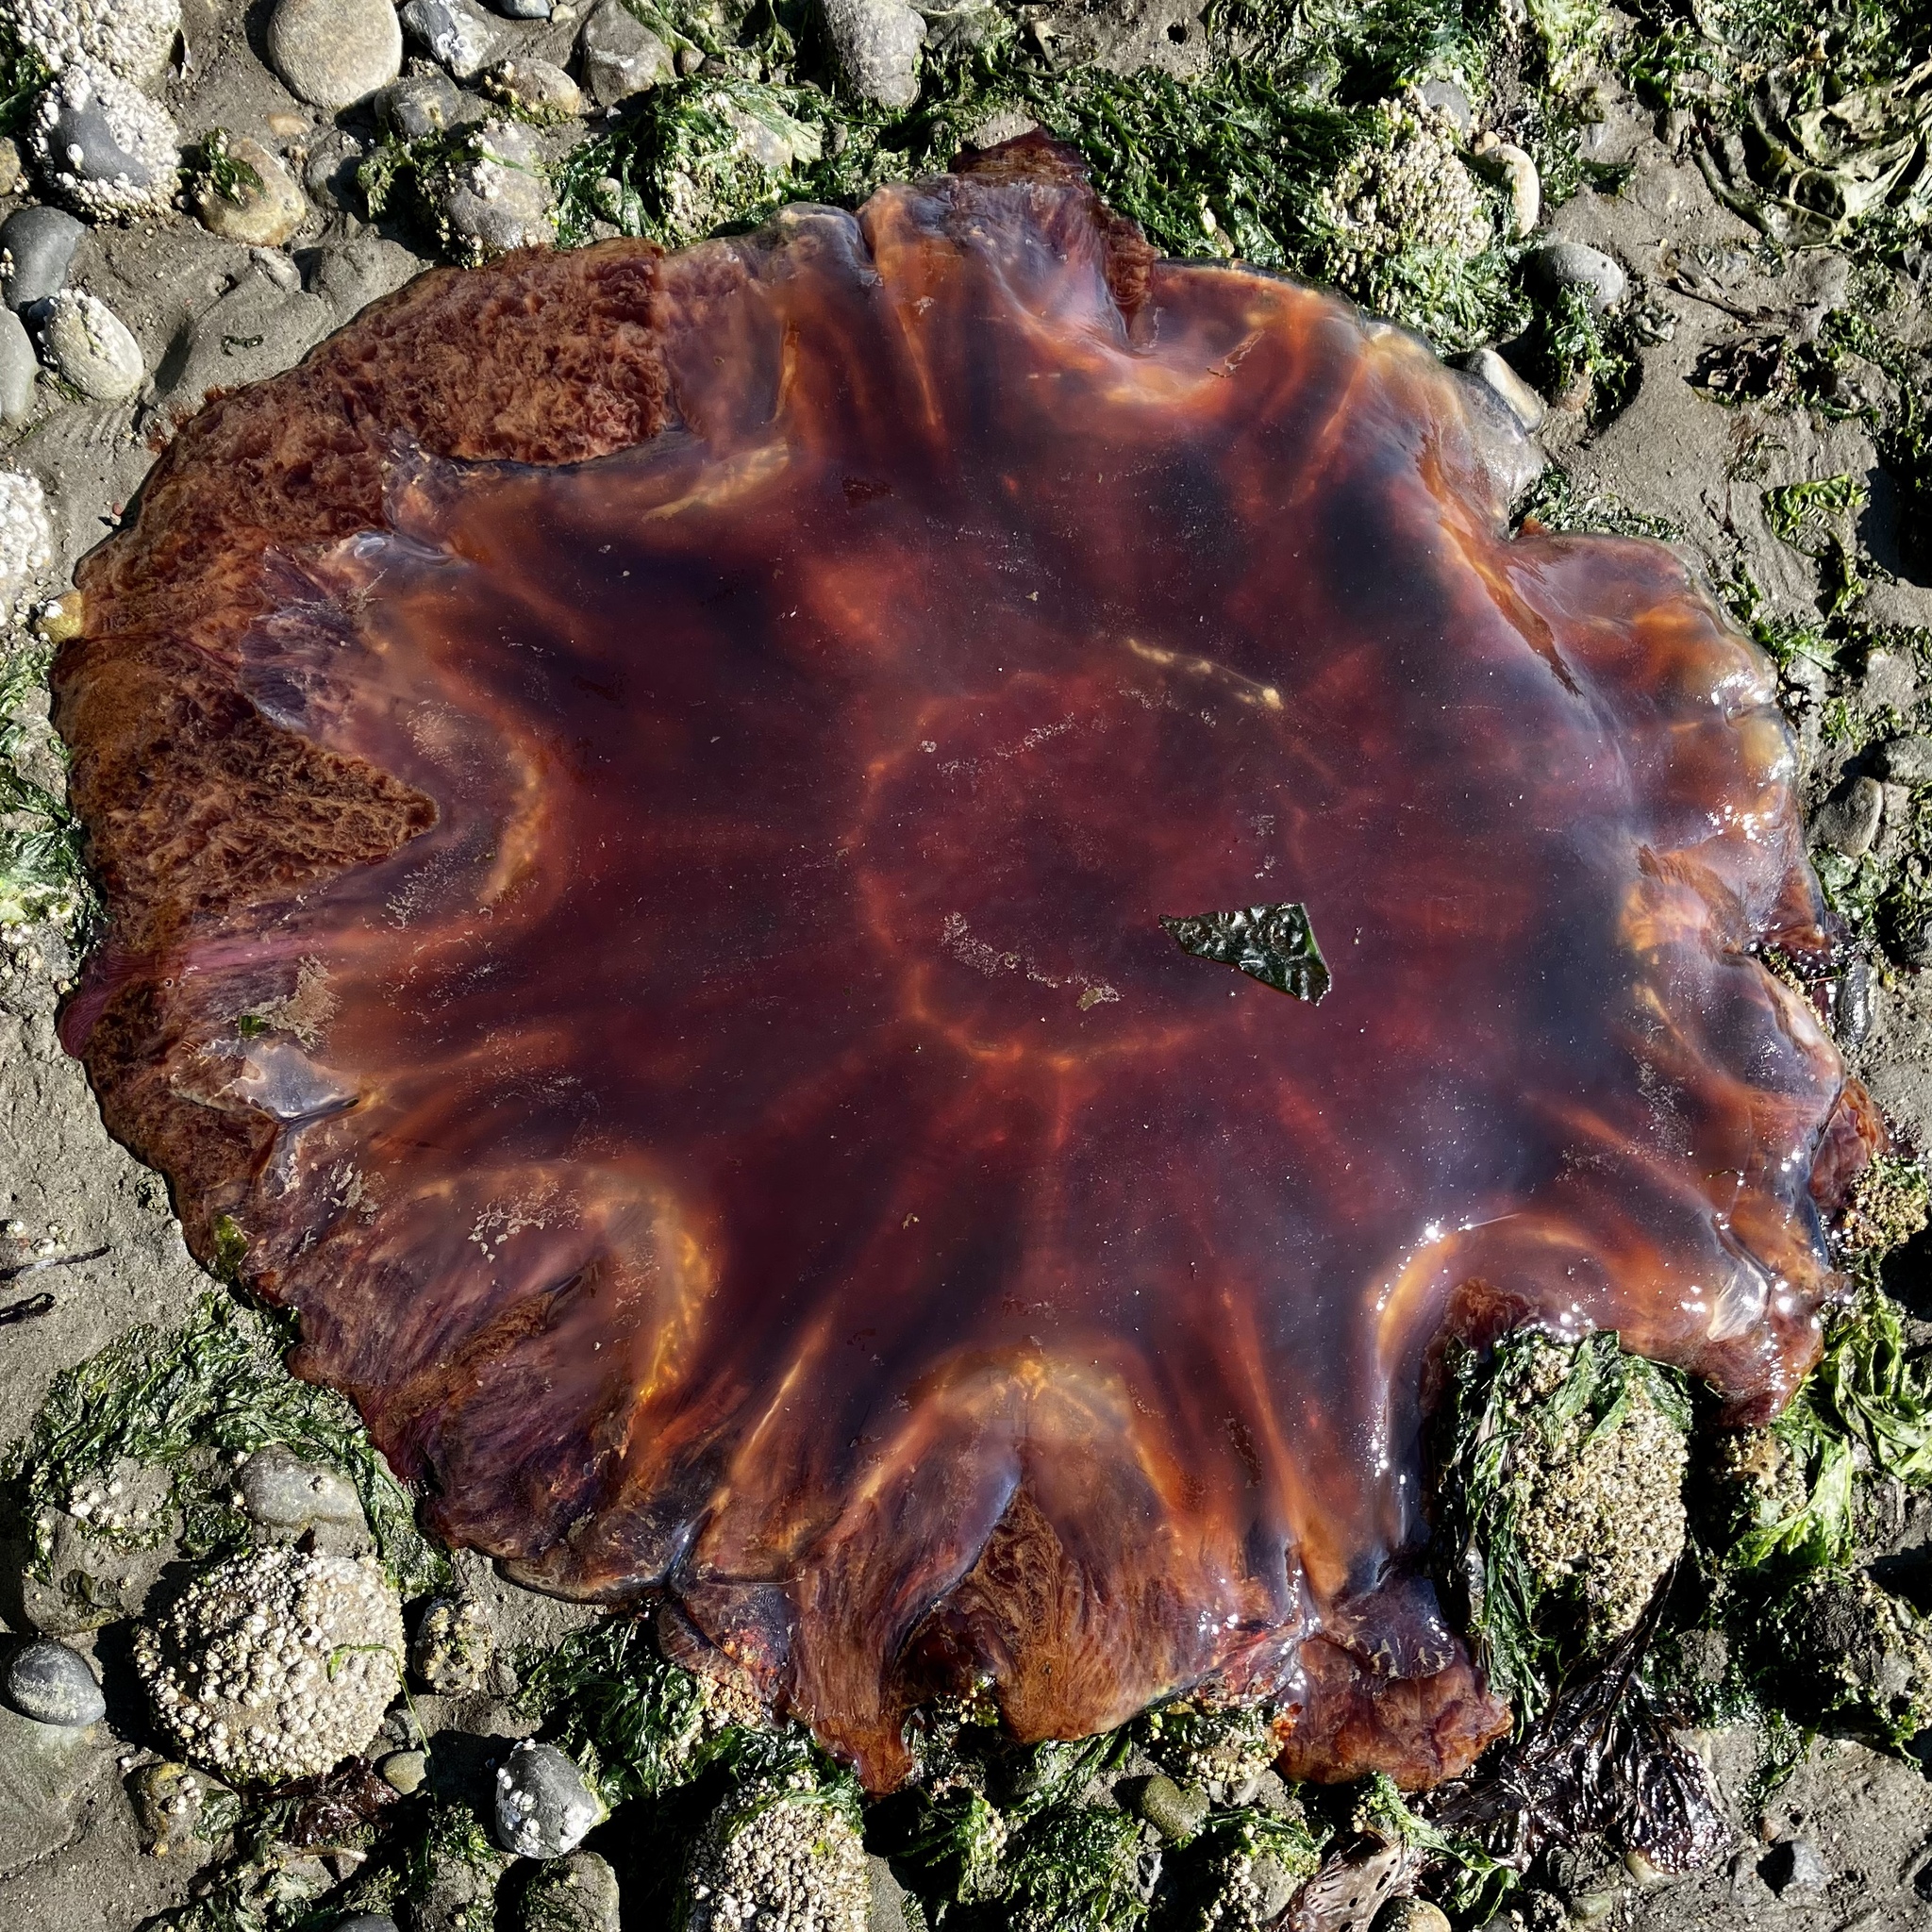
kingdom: Animalia
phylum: Cnidaria
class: Scyphozoa
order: Semaeostomeae
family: Cyaneidae
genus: Cyanea
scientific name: Cyanea ferruginea
